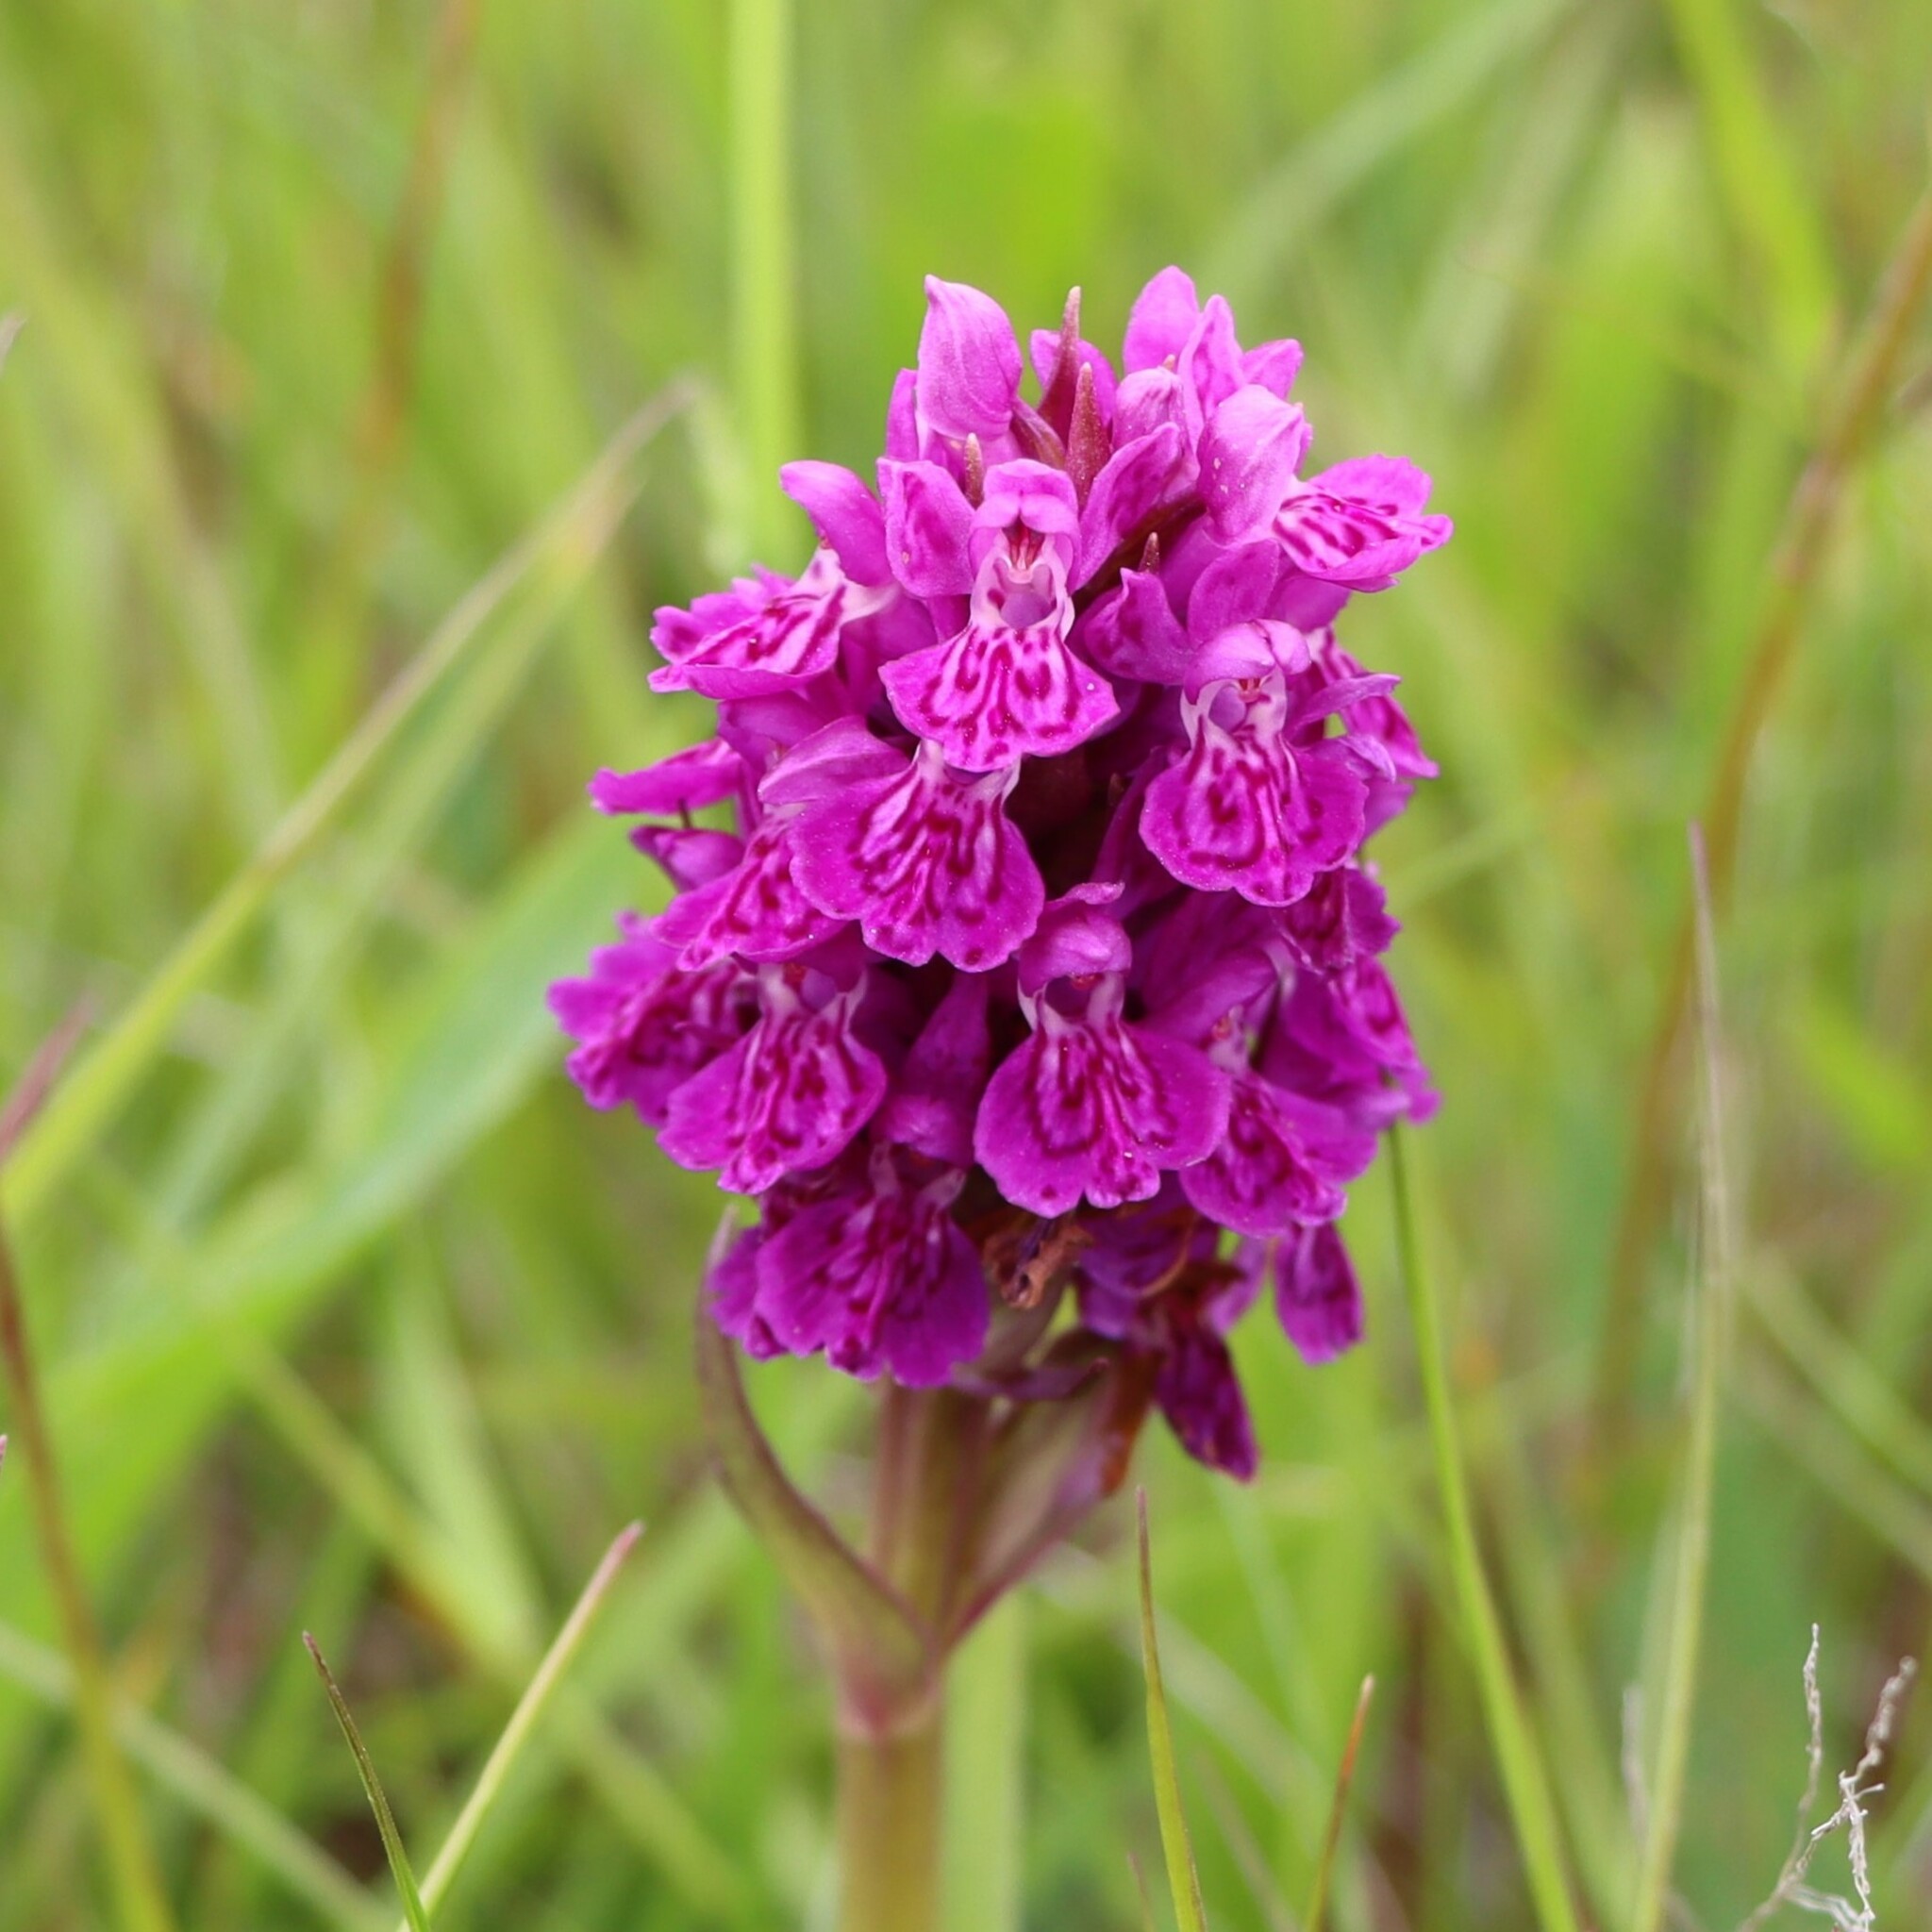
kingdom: Plantae
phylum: Tracheophyta
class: Liliopsida
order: Asparagales
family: Orchidaceae
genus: Dactylorhiza
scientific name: Dactylorhiza majalis
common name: Marsh orchid
